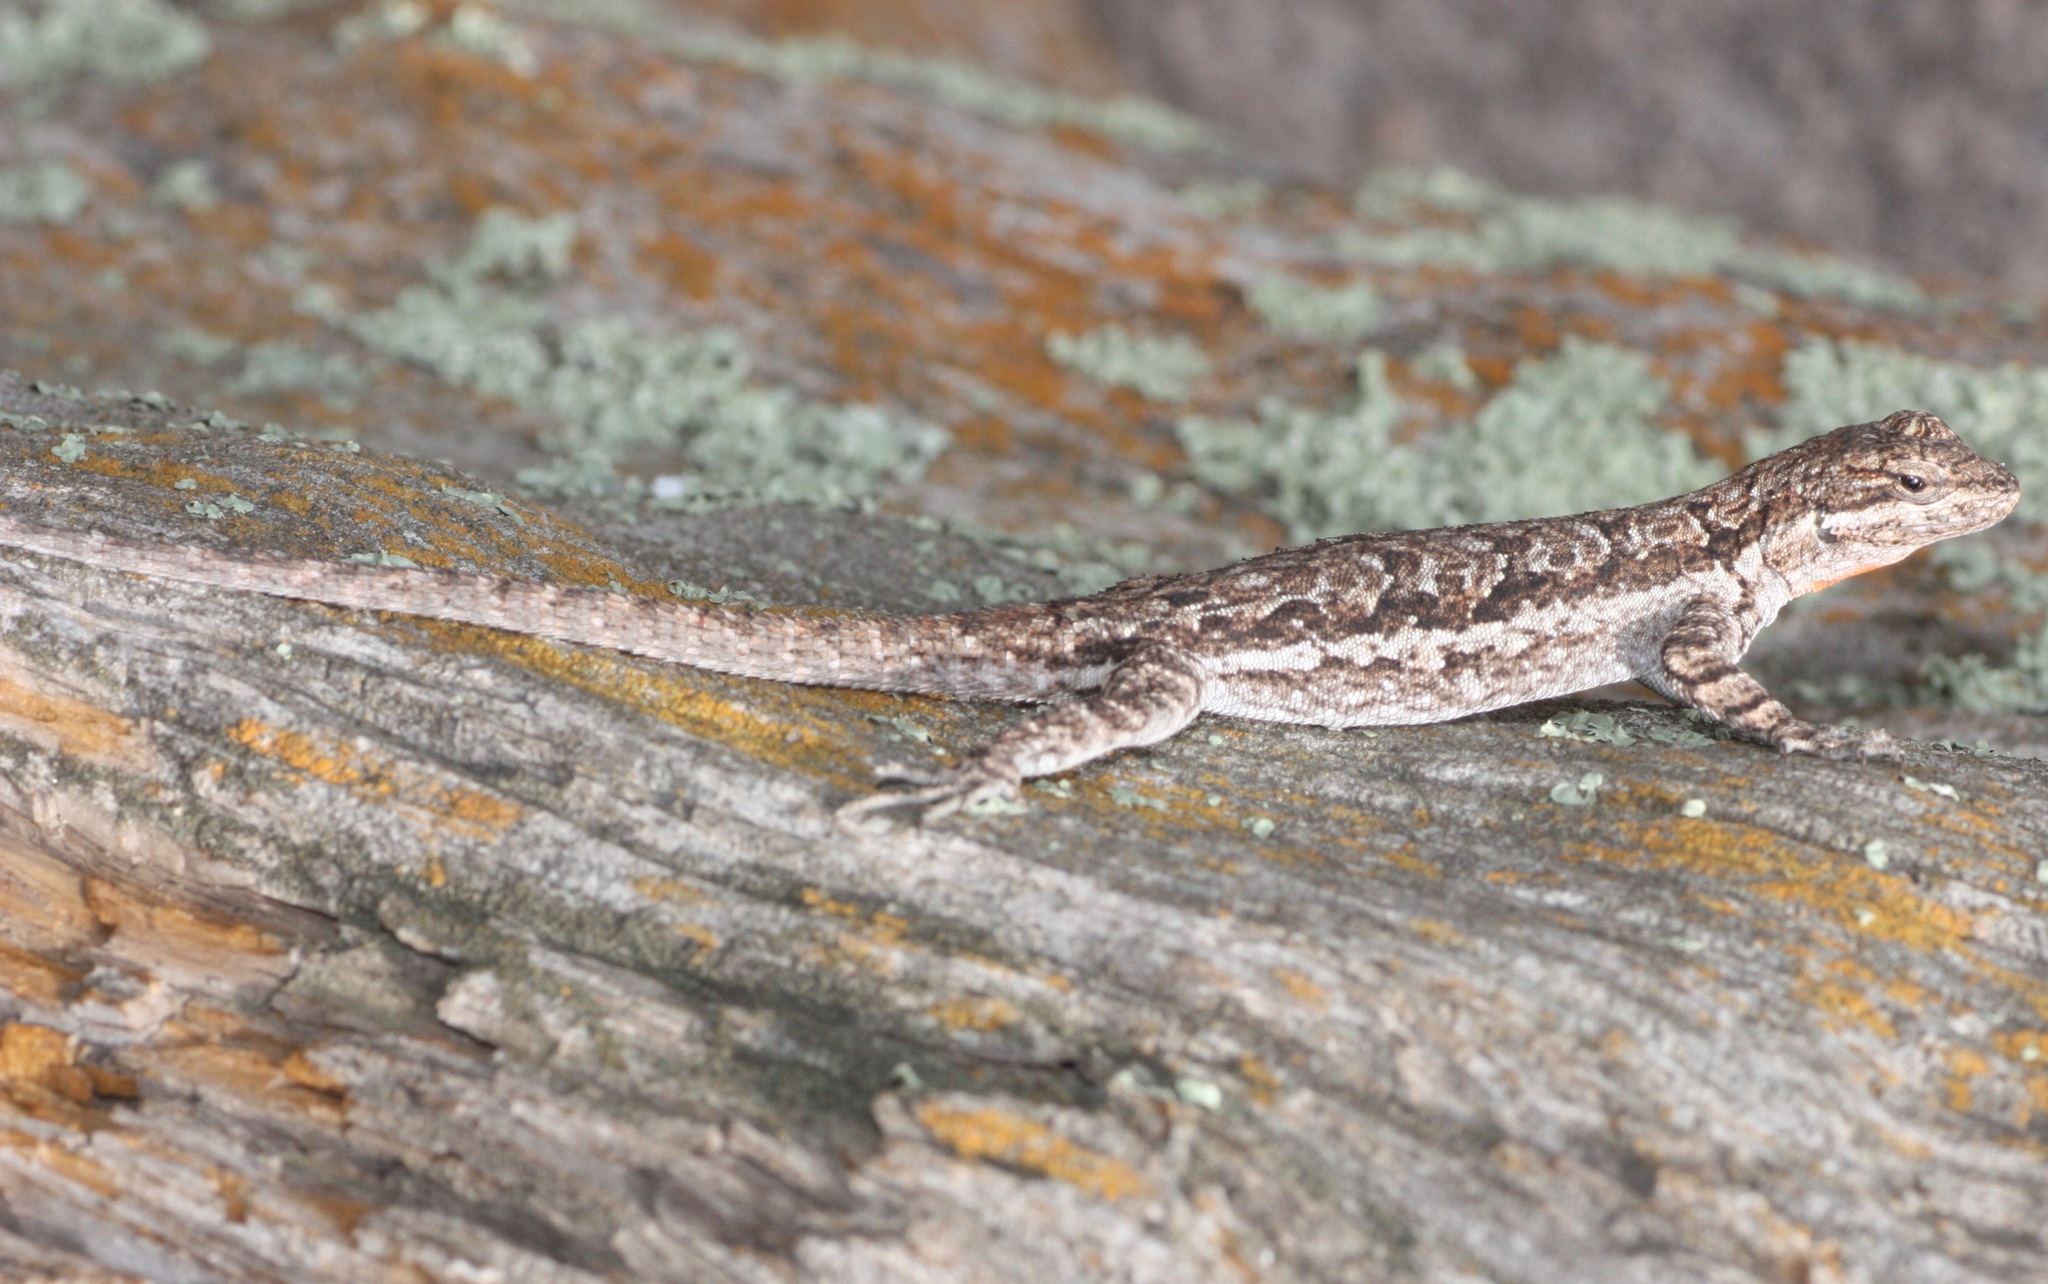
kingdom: Animalia
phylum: Chordata
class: Squamata
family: Phrynosomatidae
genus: Urosaurus
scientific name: Urosaurus ornatus
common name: Ornate tree lizard
